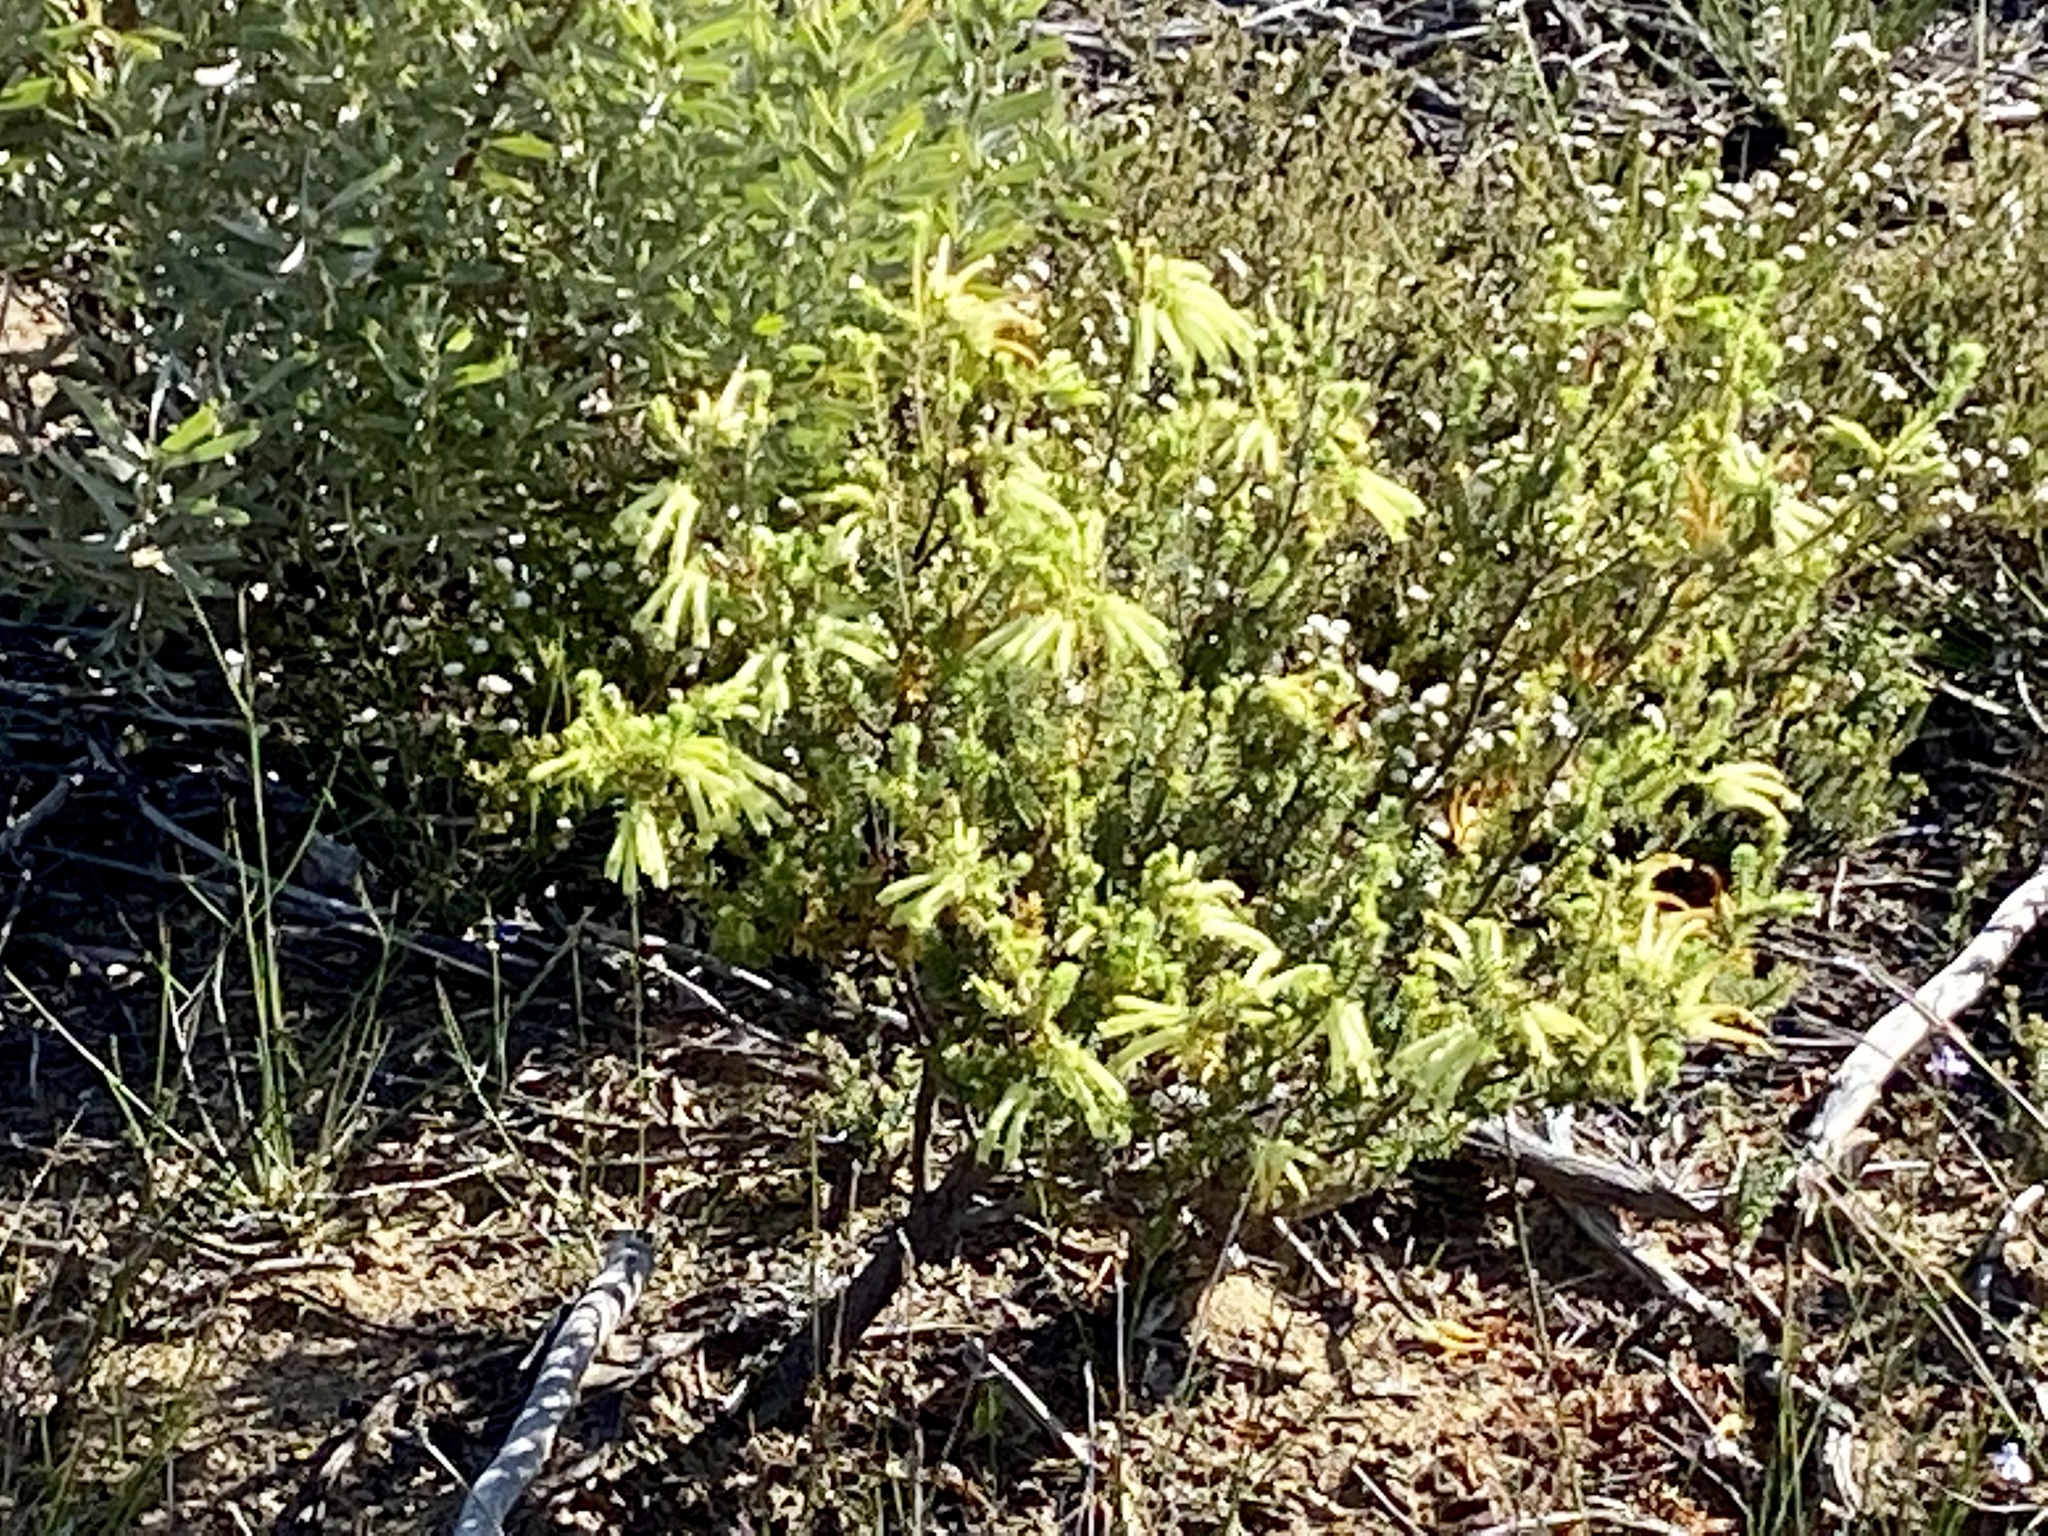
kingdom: Plantae
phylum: Tracheophyta
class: Magnoliopsida
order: Ericales
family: Ericaceae
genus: Erica
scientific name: Erica sessiliflora
